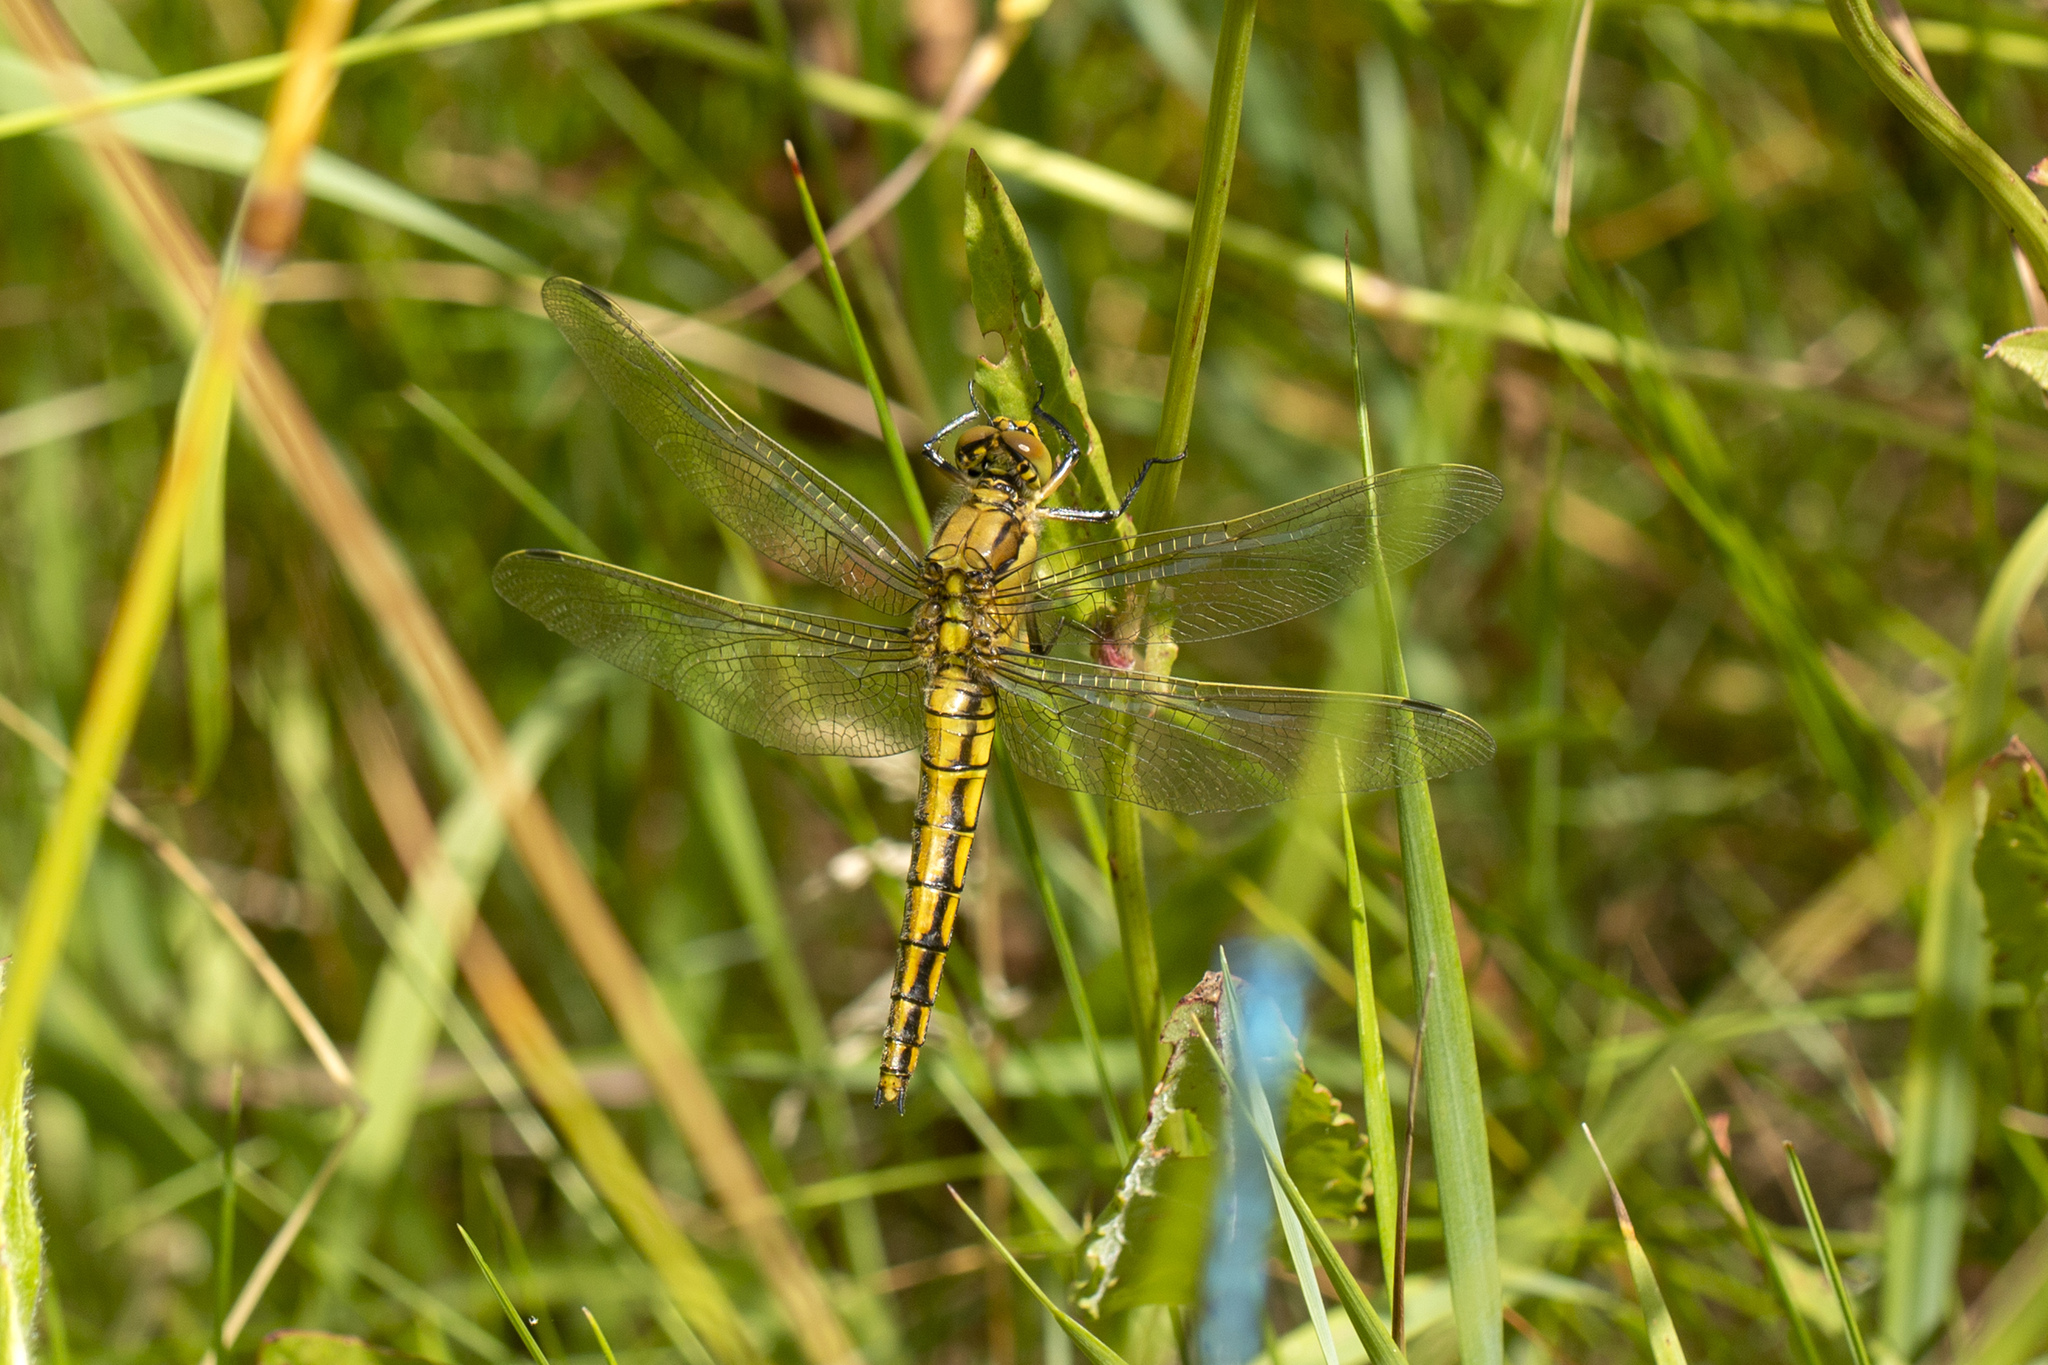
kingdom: Animalia
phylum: Arthropoda
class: Insecta
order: Odonata
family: Libellulidae
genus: Orthetrum
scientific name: Orthetrum cancellatum
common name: Black-tailed skimmer
